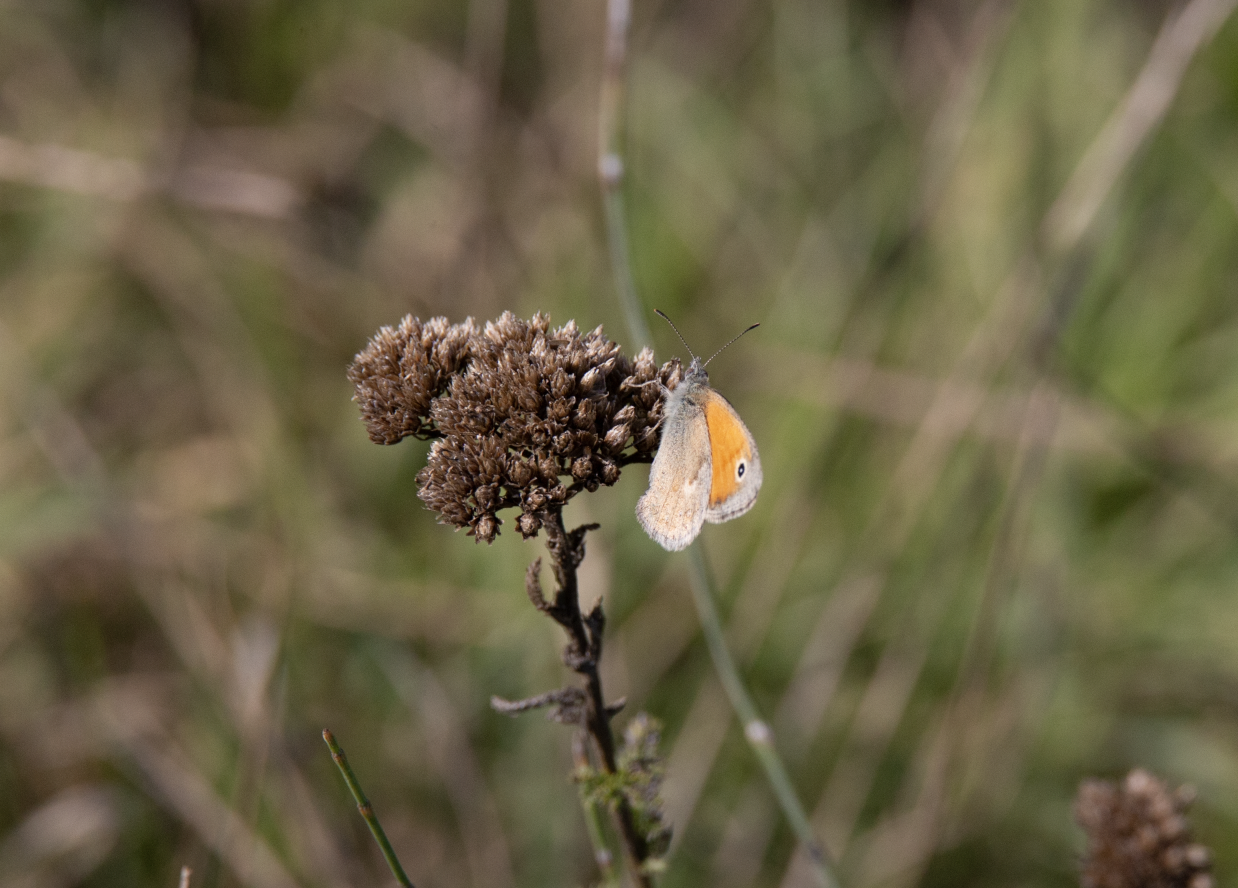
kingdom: Animalia
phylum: Arthropoda
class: Insecta
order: Lepidoptera
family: Nymphalidae
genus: Coenonympha
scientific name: Coenonympha pamphilus
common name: Small heath
